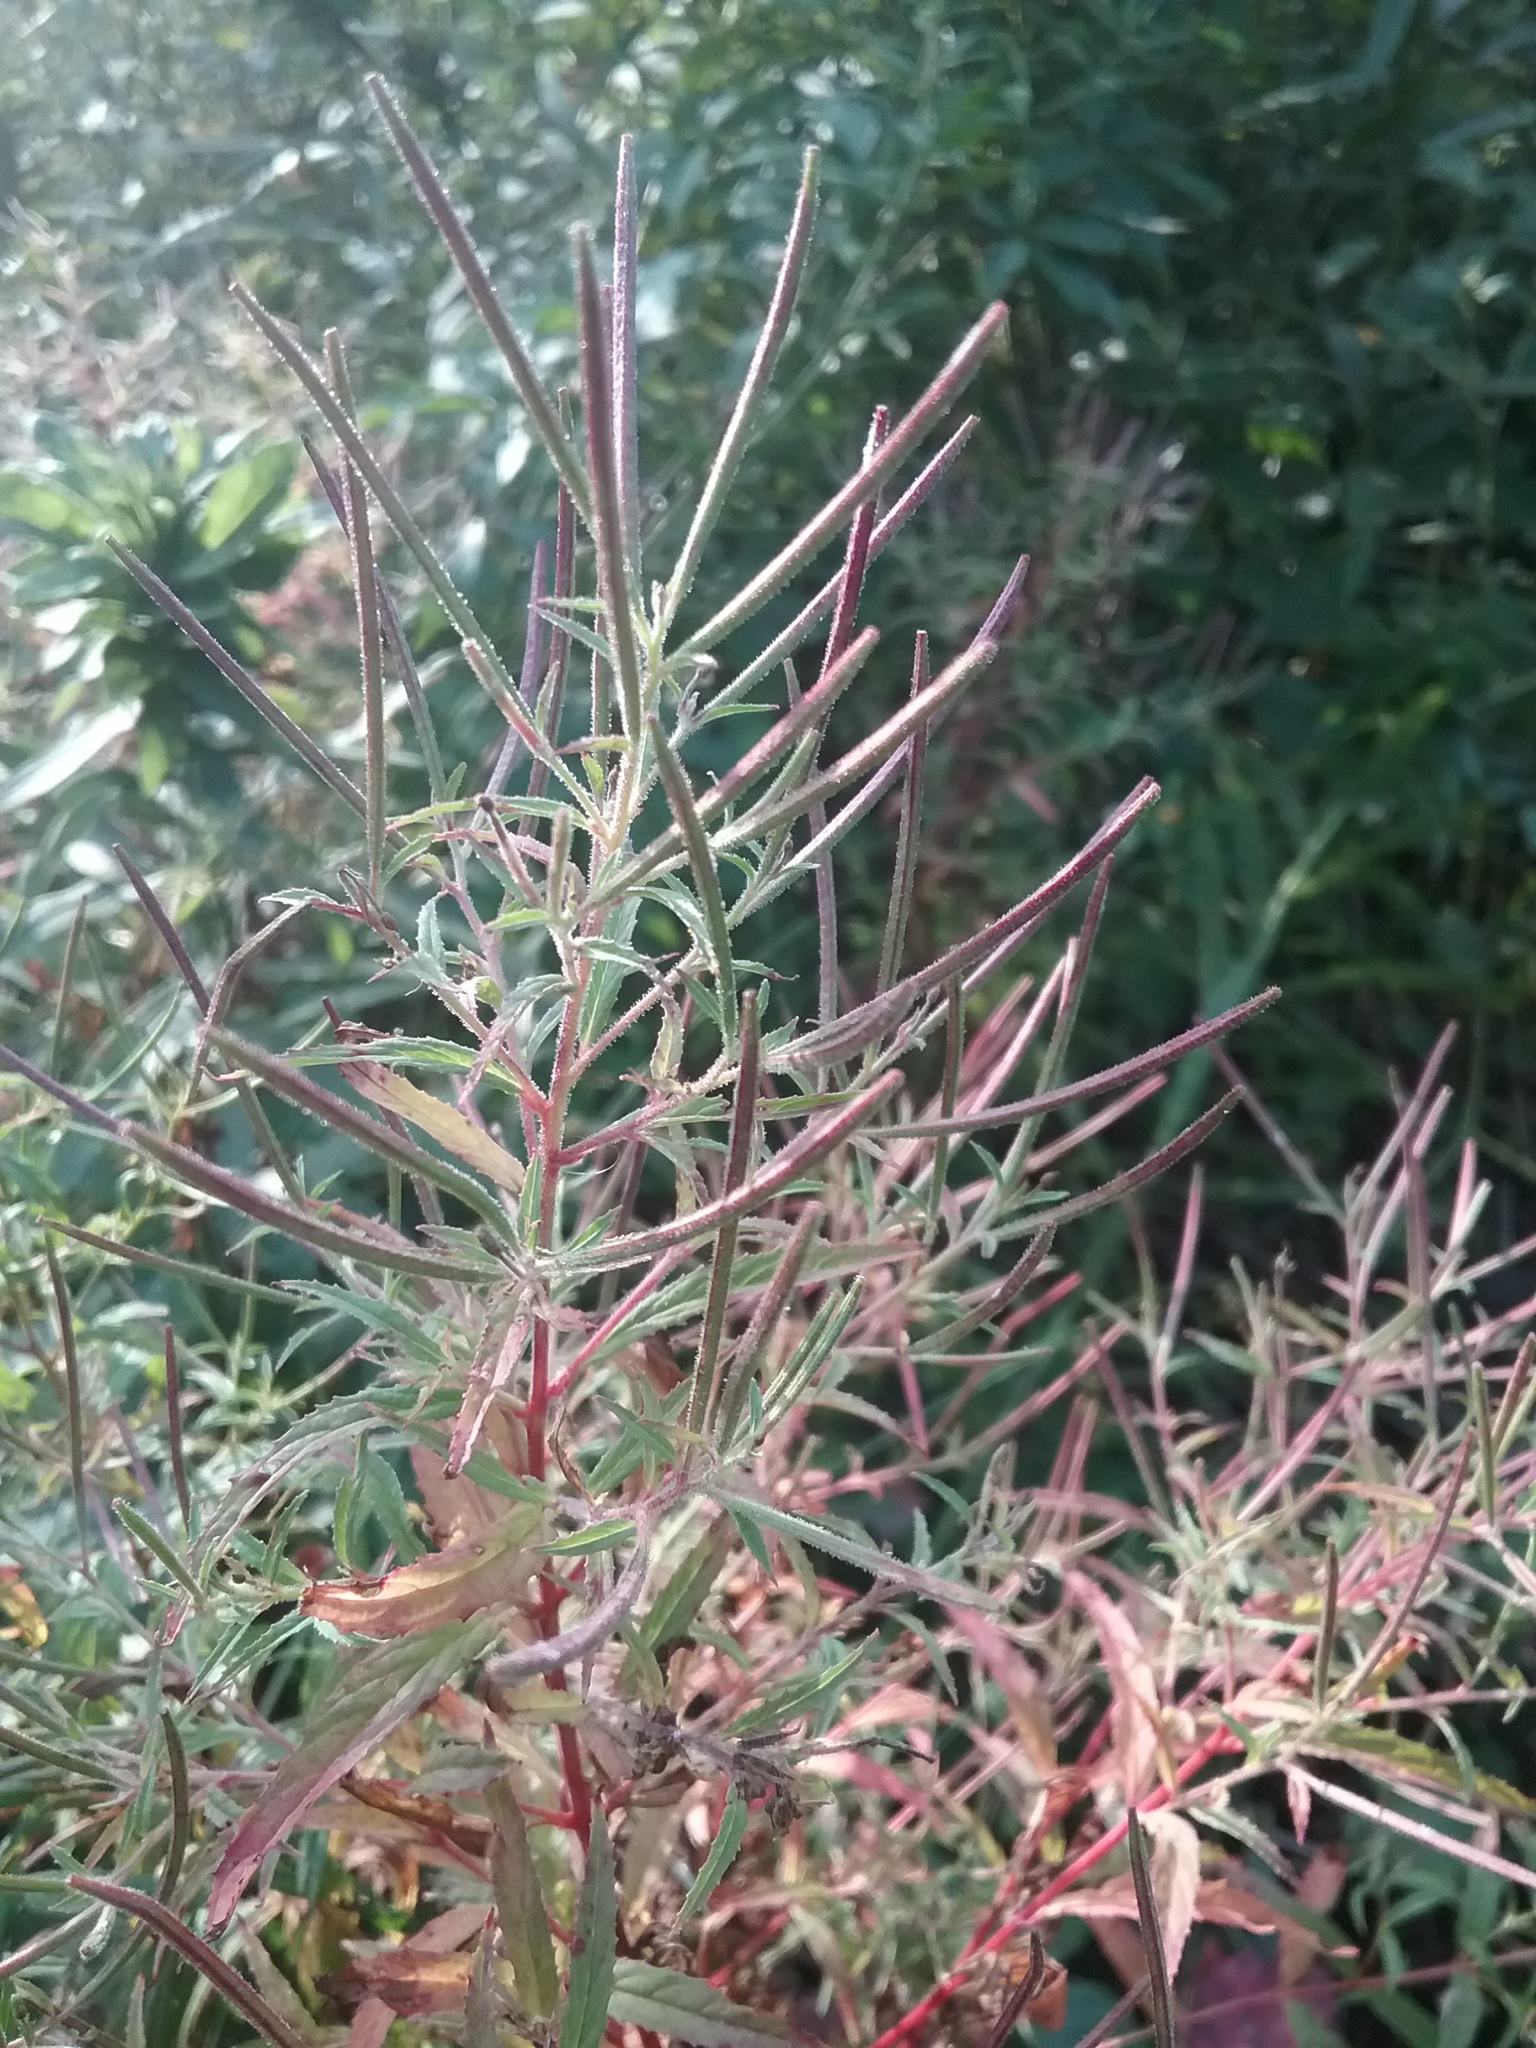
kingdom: Plantae
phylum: Tracheophyta
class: Magnoliopsida
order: Myrtales
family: Onagraceae
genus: Epilobium
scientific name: Epilobium coloratum
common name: Bronze willowherb
